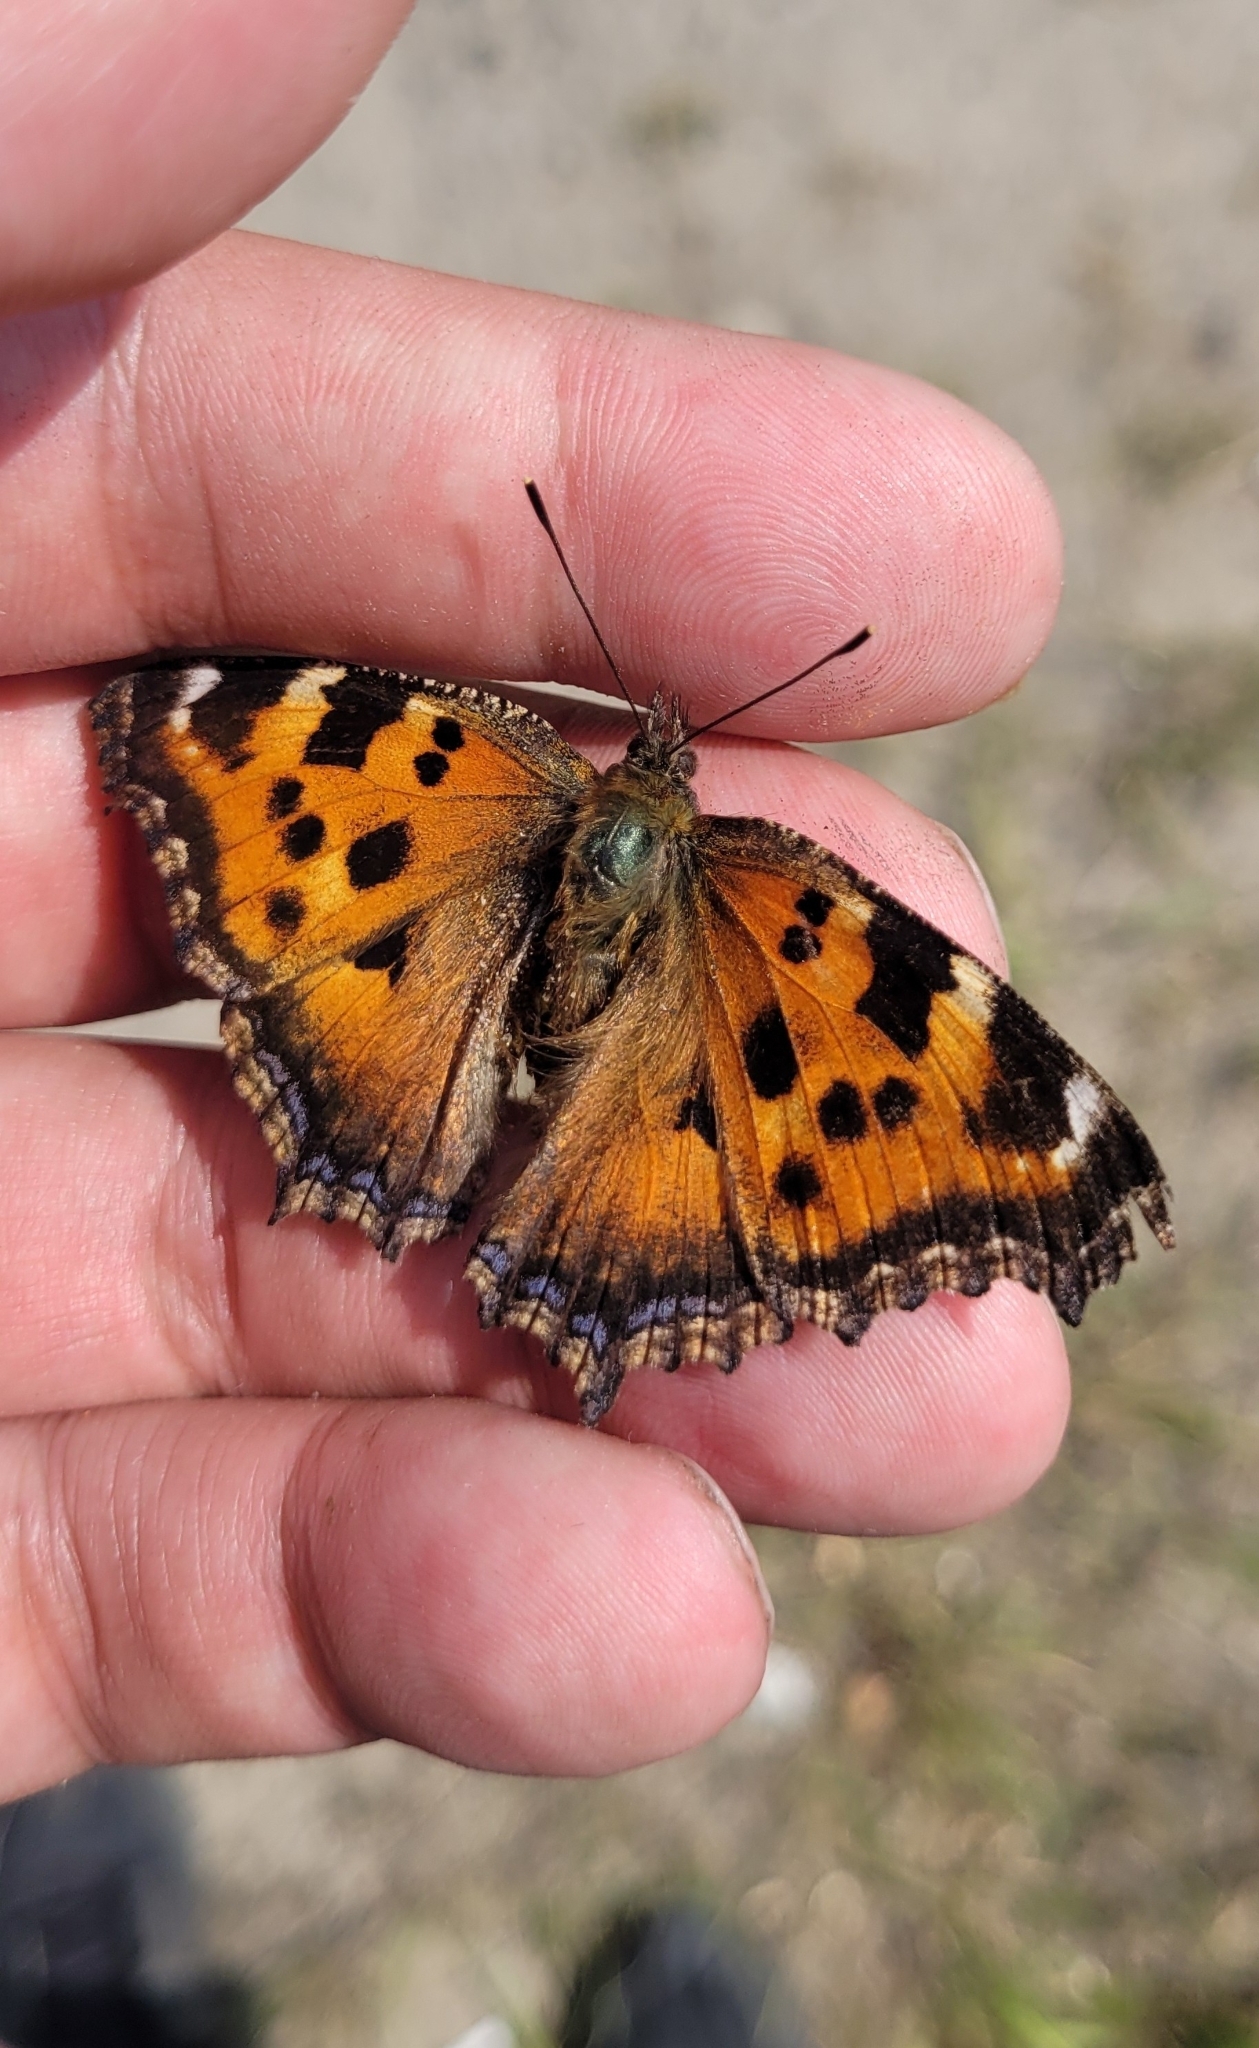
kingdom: Animalia
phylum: Arthropoda
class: Insecta
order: Lepidoptera
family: Nymphalidae
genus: Nymphalis
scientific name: Nymphalis xanthomelas
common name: Scarce tortoiseshell
